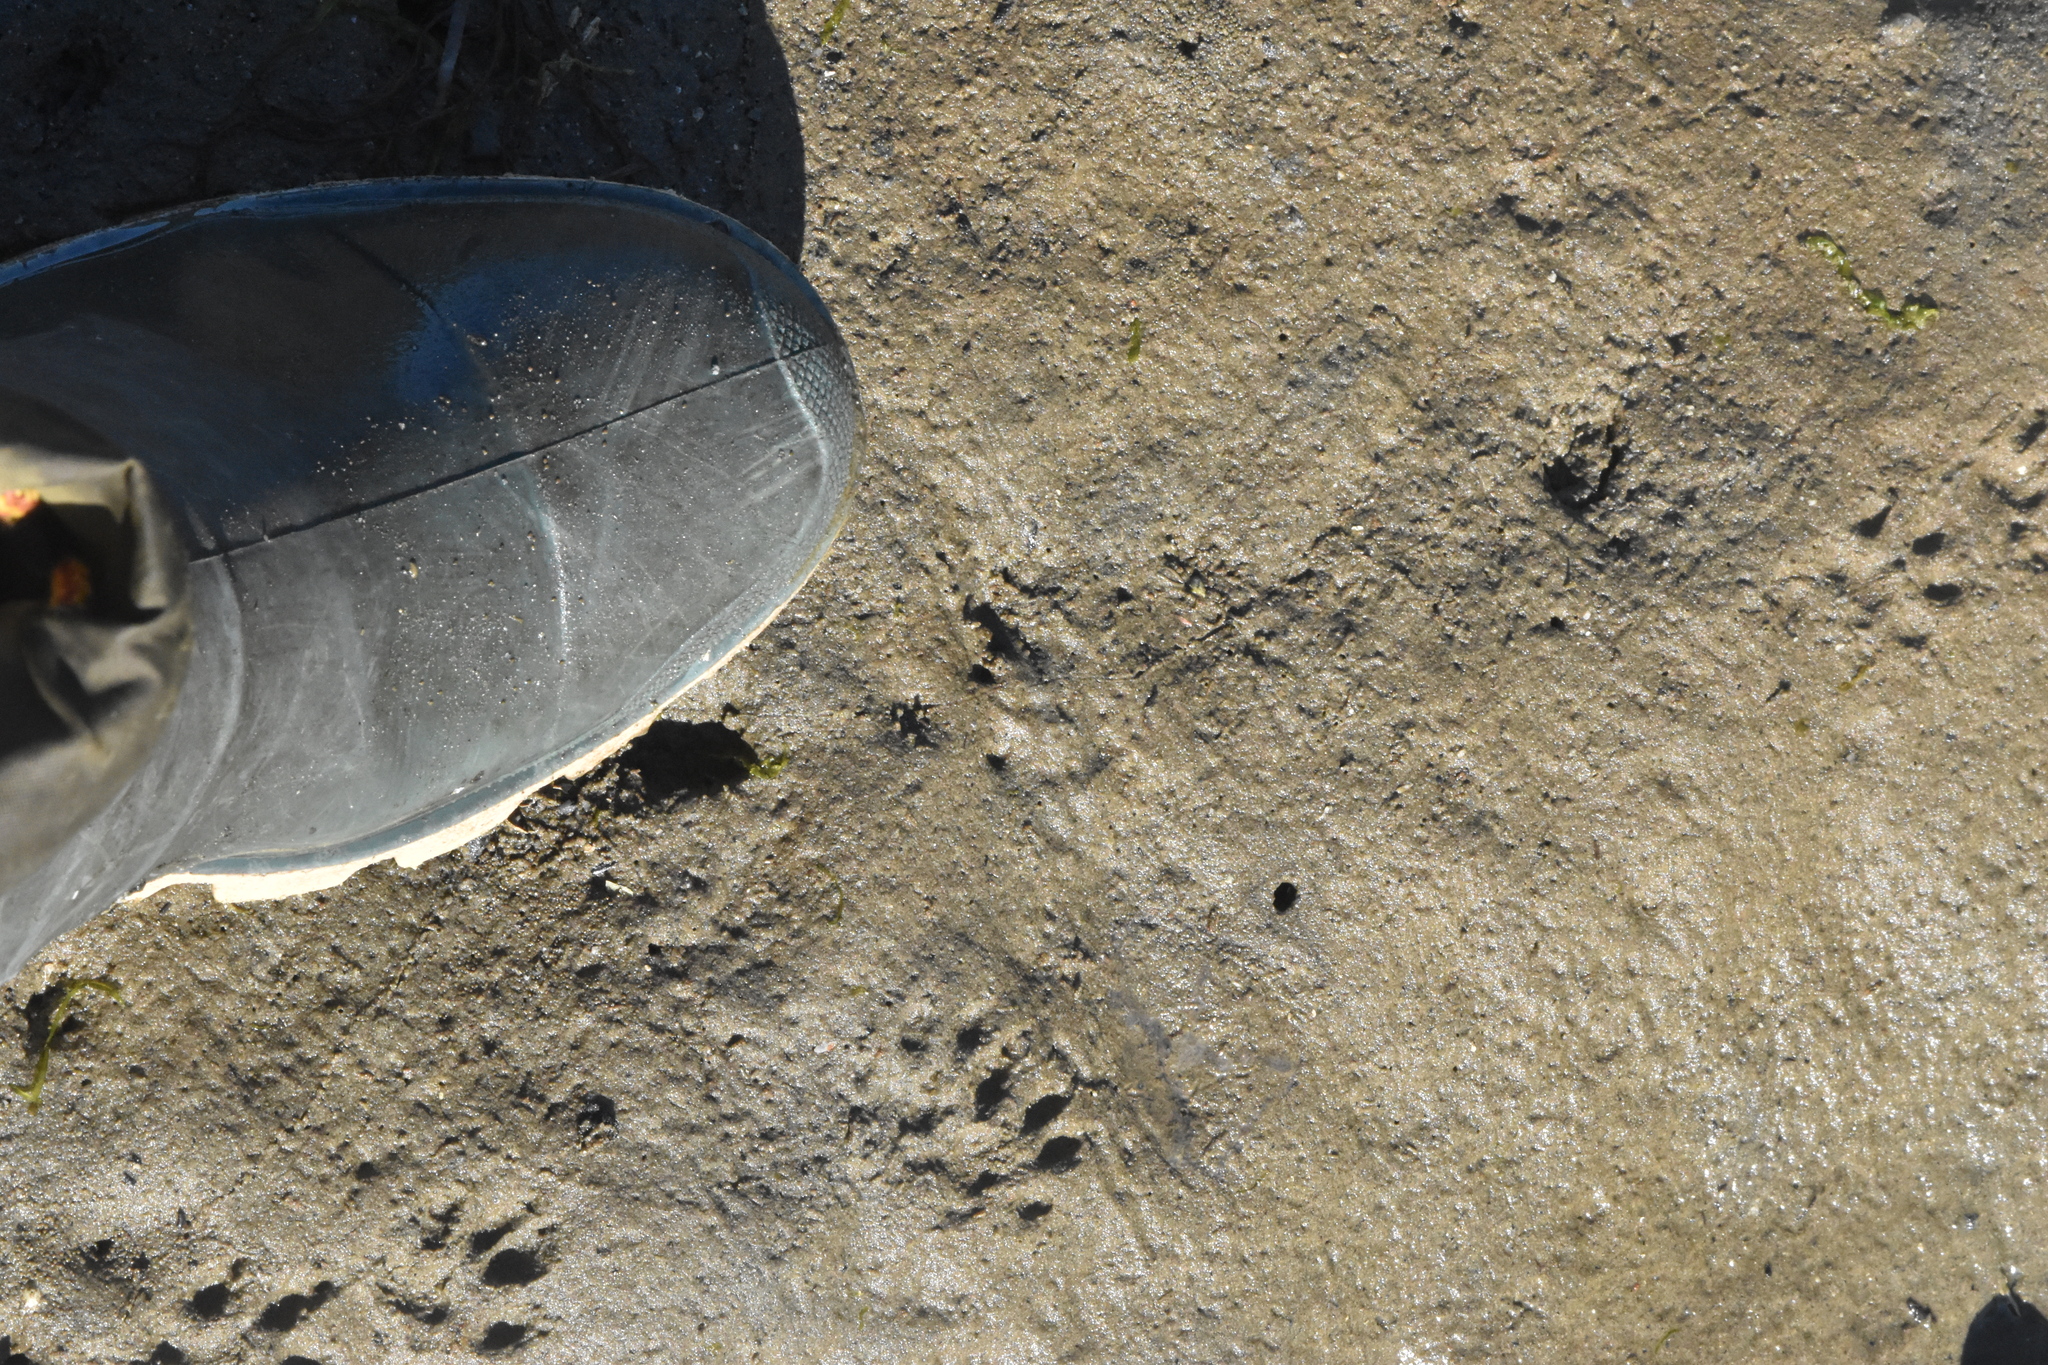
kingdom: Animalia
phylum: Chordata
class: Mammalia
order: Carnivora
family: Mustelidae
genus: Mustela
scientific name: Mustela
